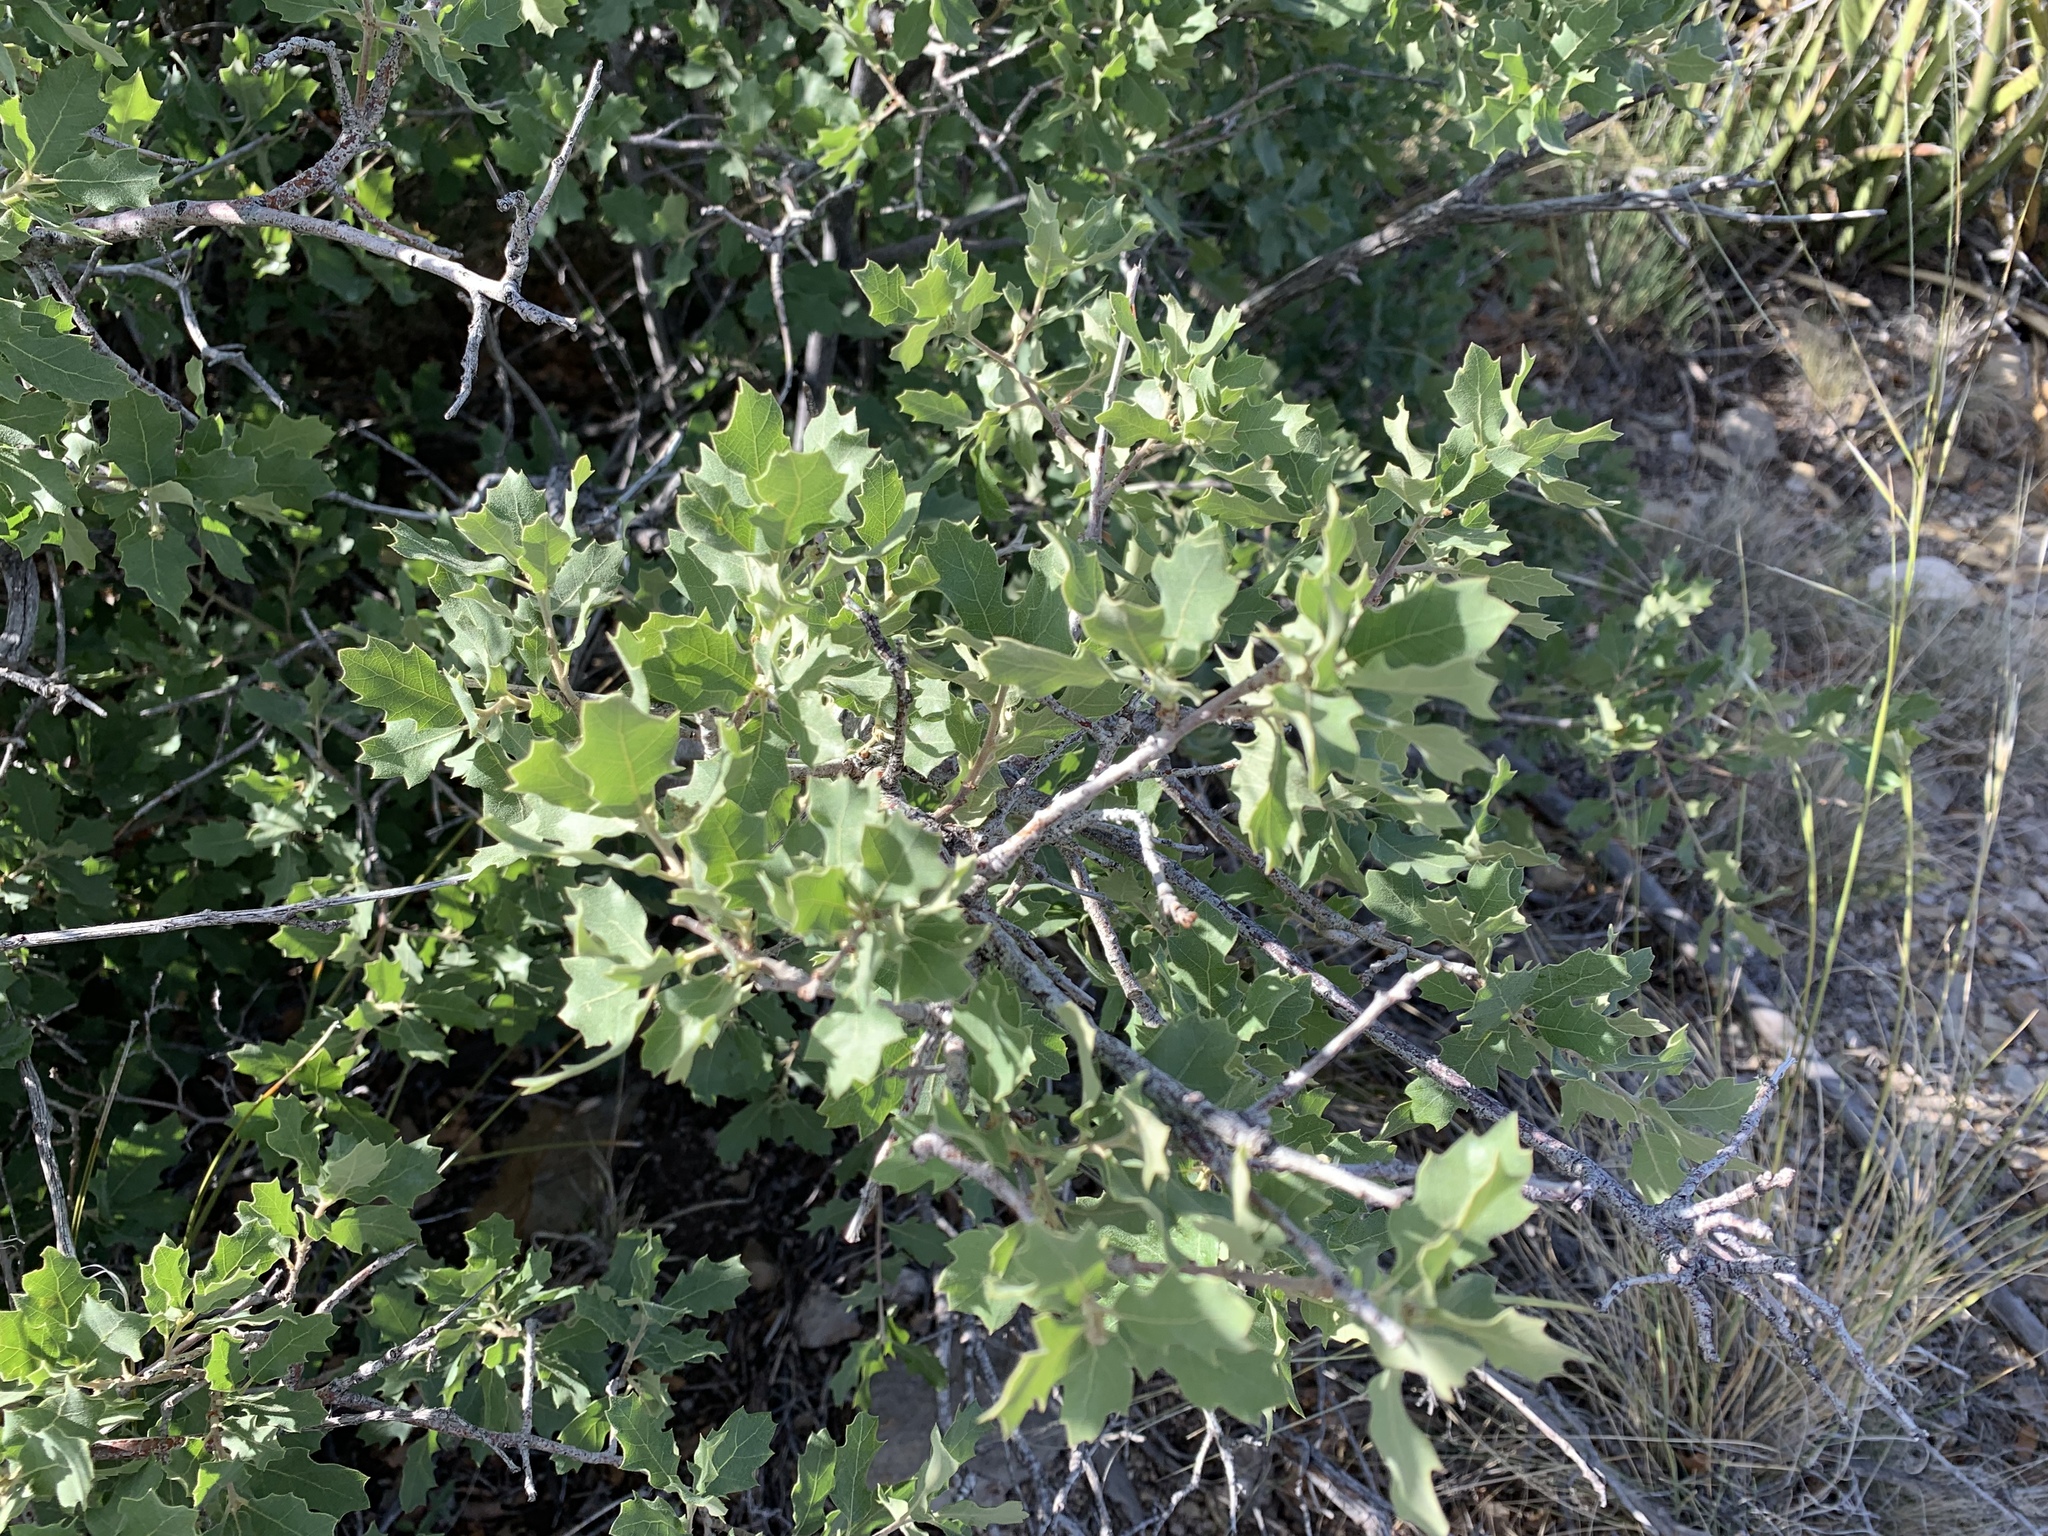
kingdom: Plantae
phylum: Tracheophyta
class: Magnoliopsida
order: Fagales
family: Fagaceae
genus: Quercus
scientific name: Quercus undulata
